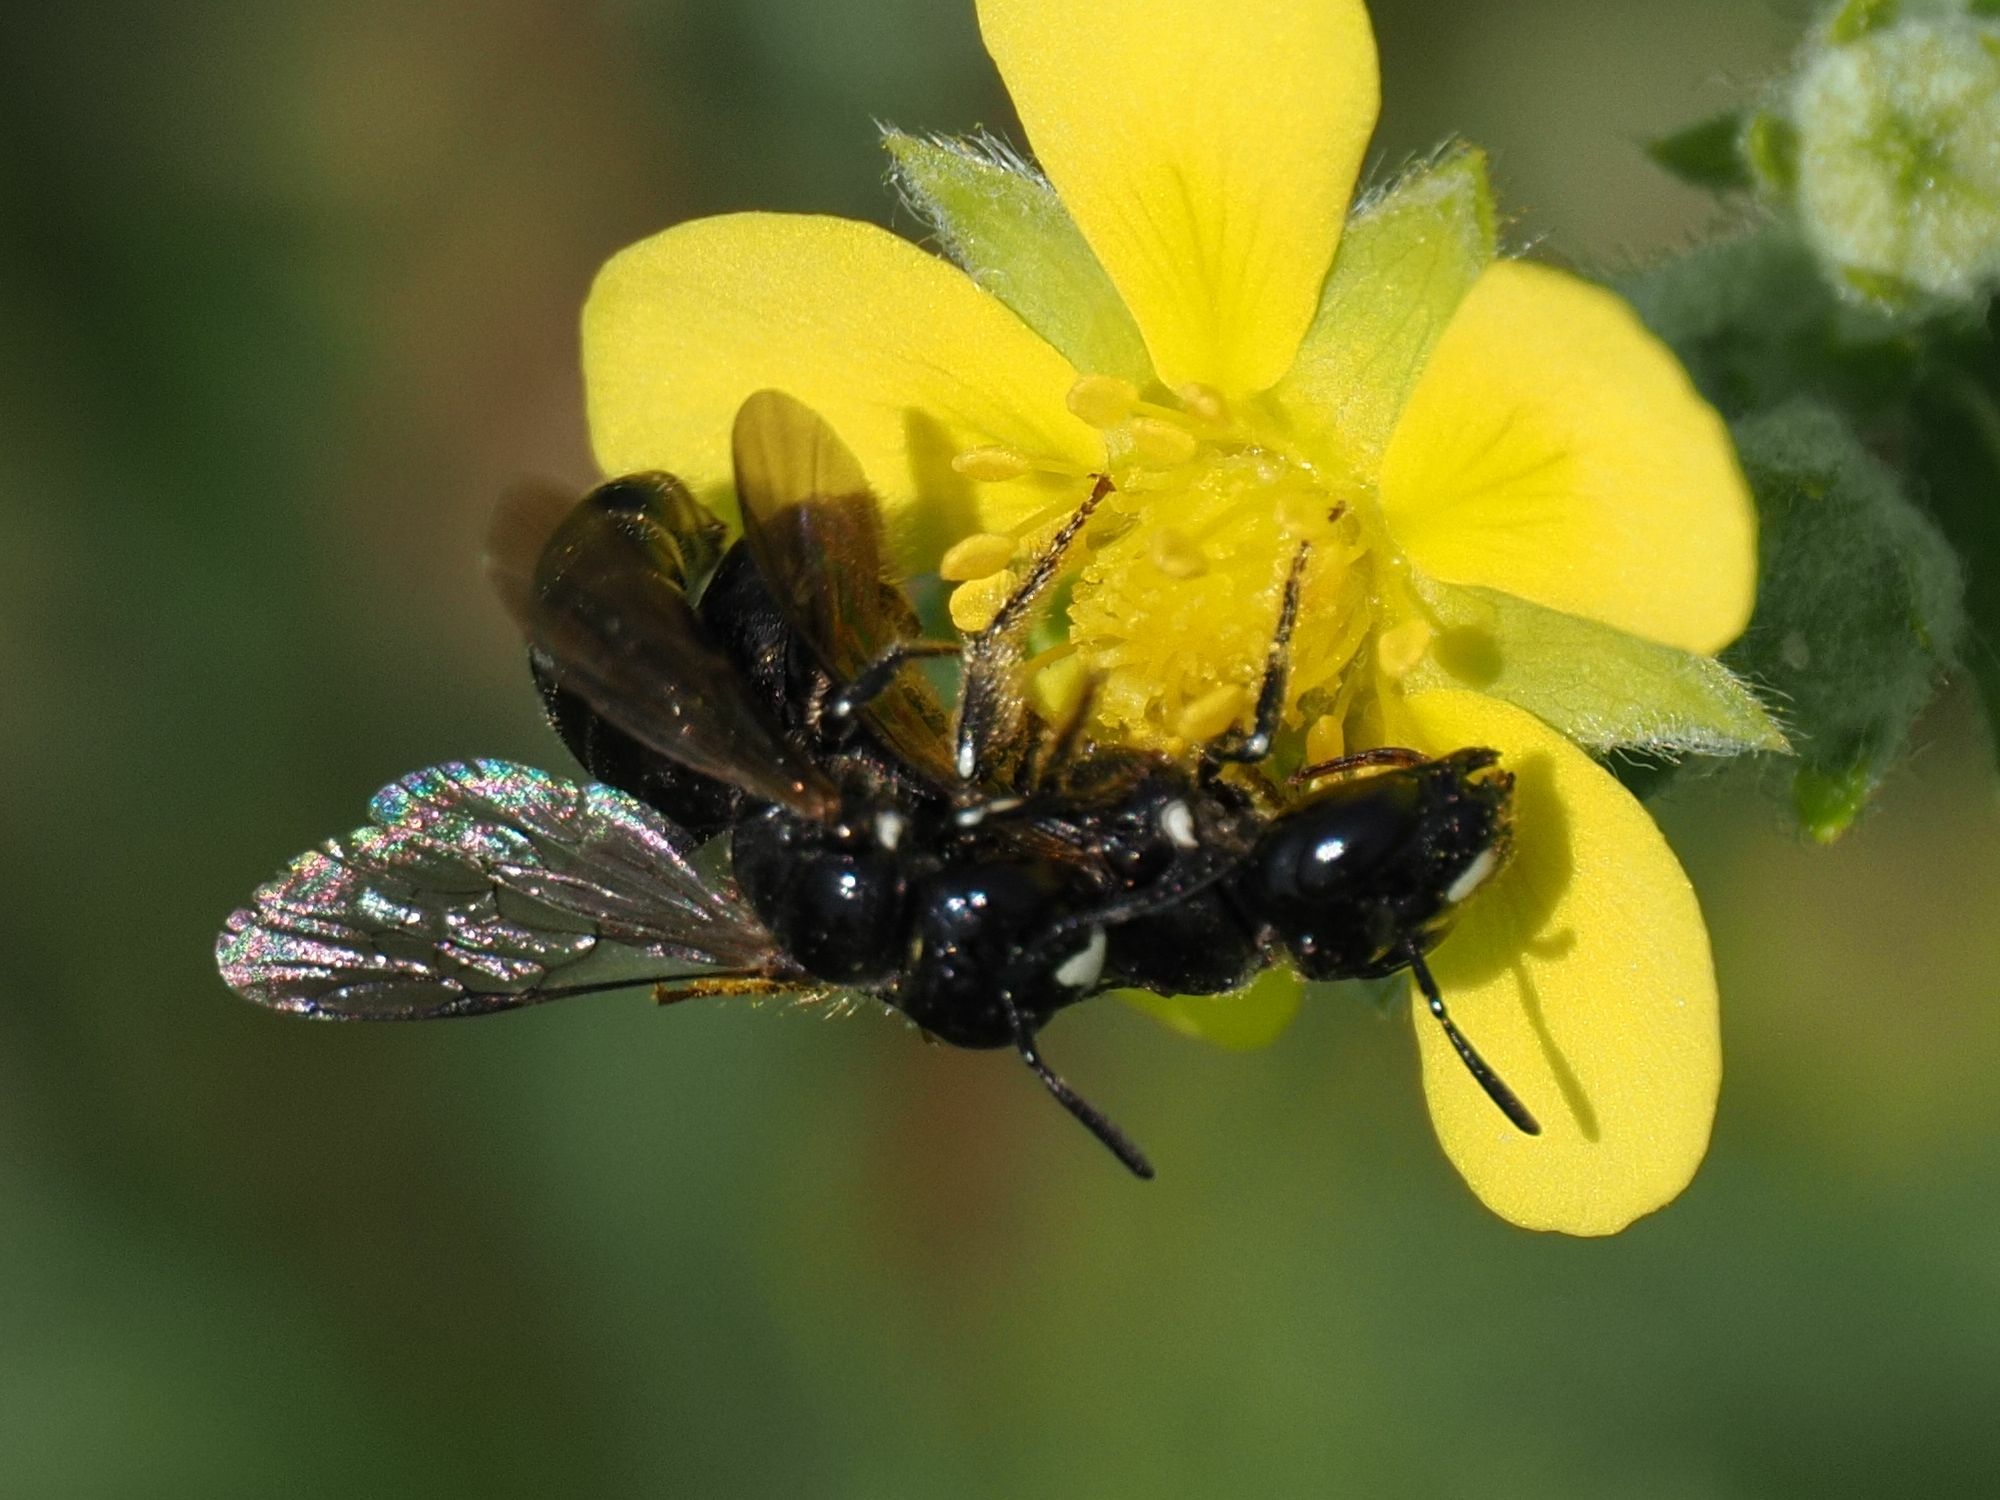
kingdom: Animalia
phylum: Arthropoda
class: Insecta
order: Hymenoptera
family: Apidae
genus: Ceratina
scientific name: Ceratina cucurbitina
